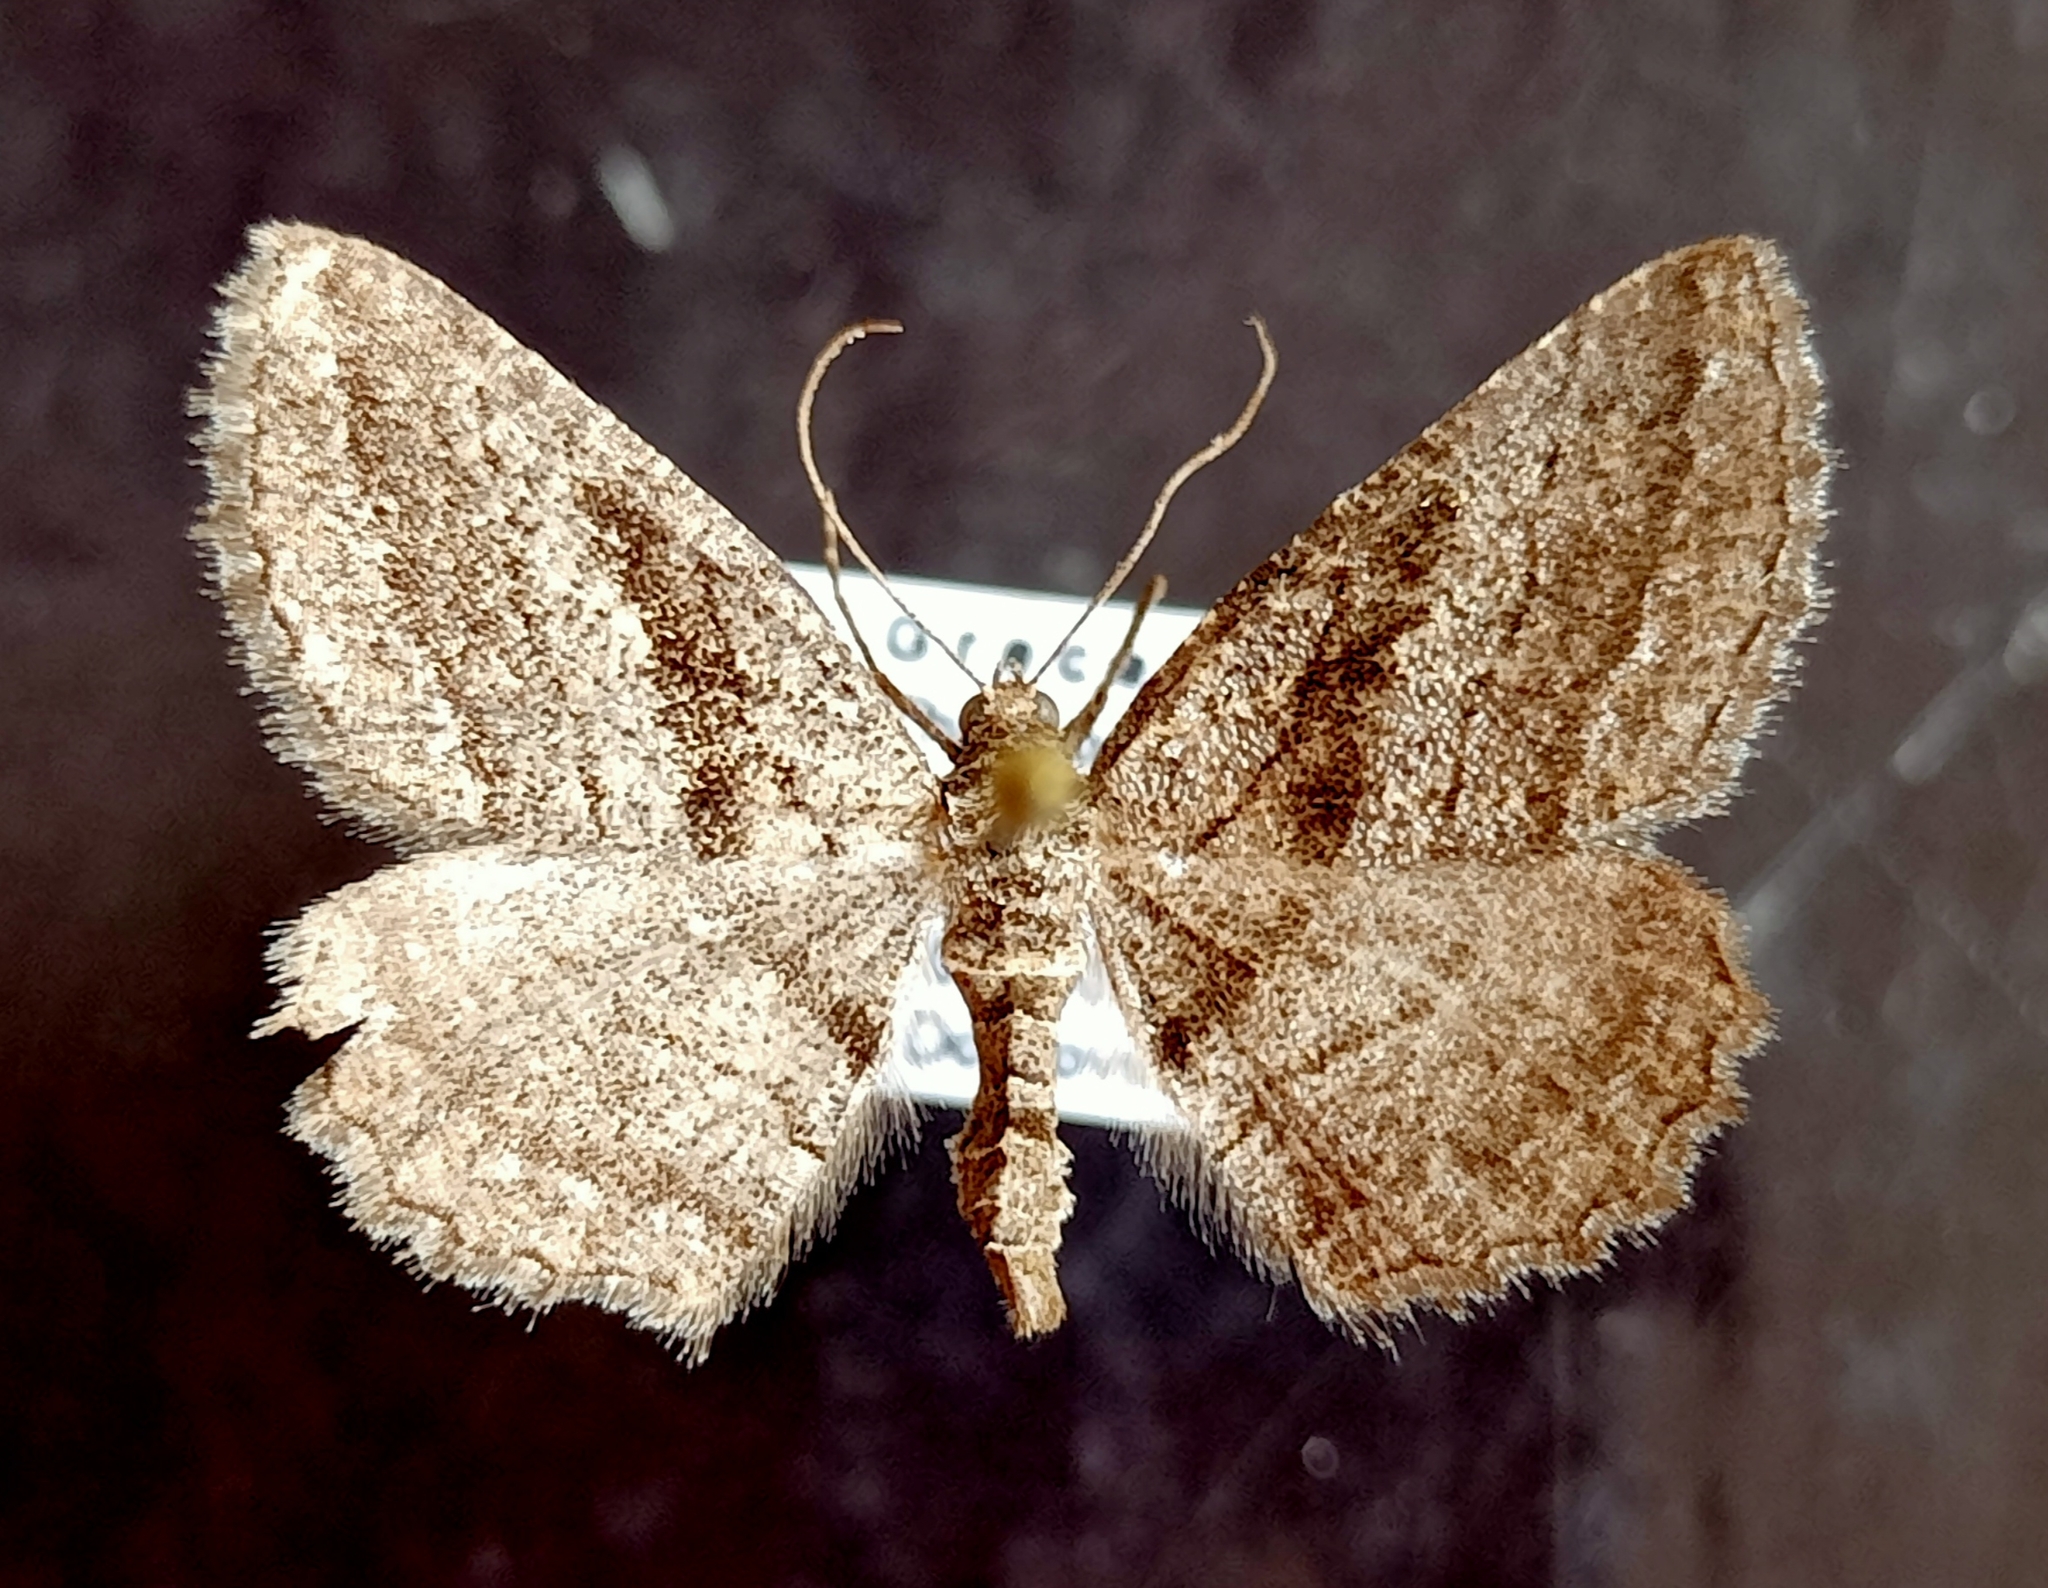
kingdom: Animalia
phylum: Arthropoda
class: Insecta
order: Lepidoptera
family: Geometridae
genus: Rhoptria
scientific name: Rhoptria asperaria
